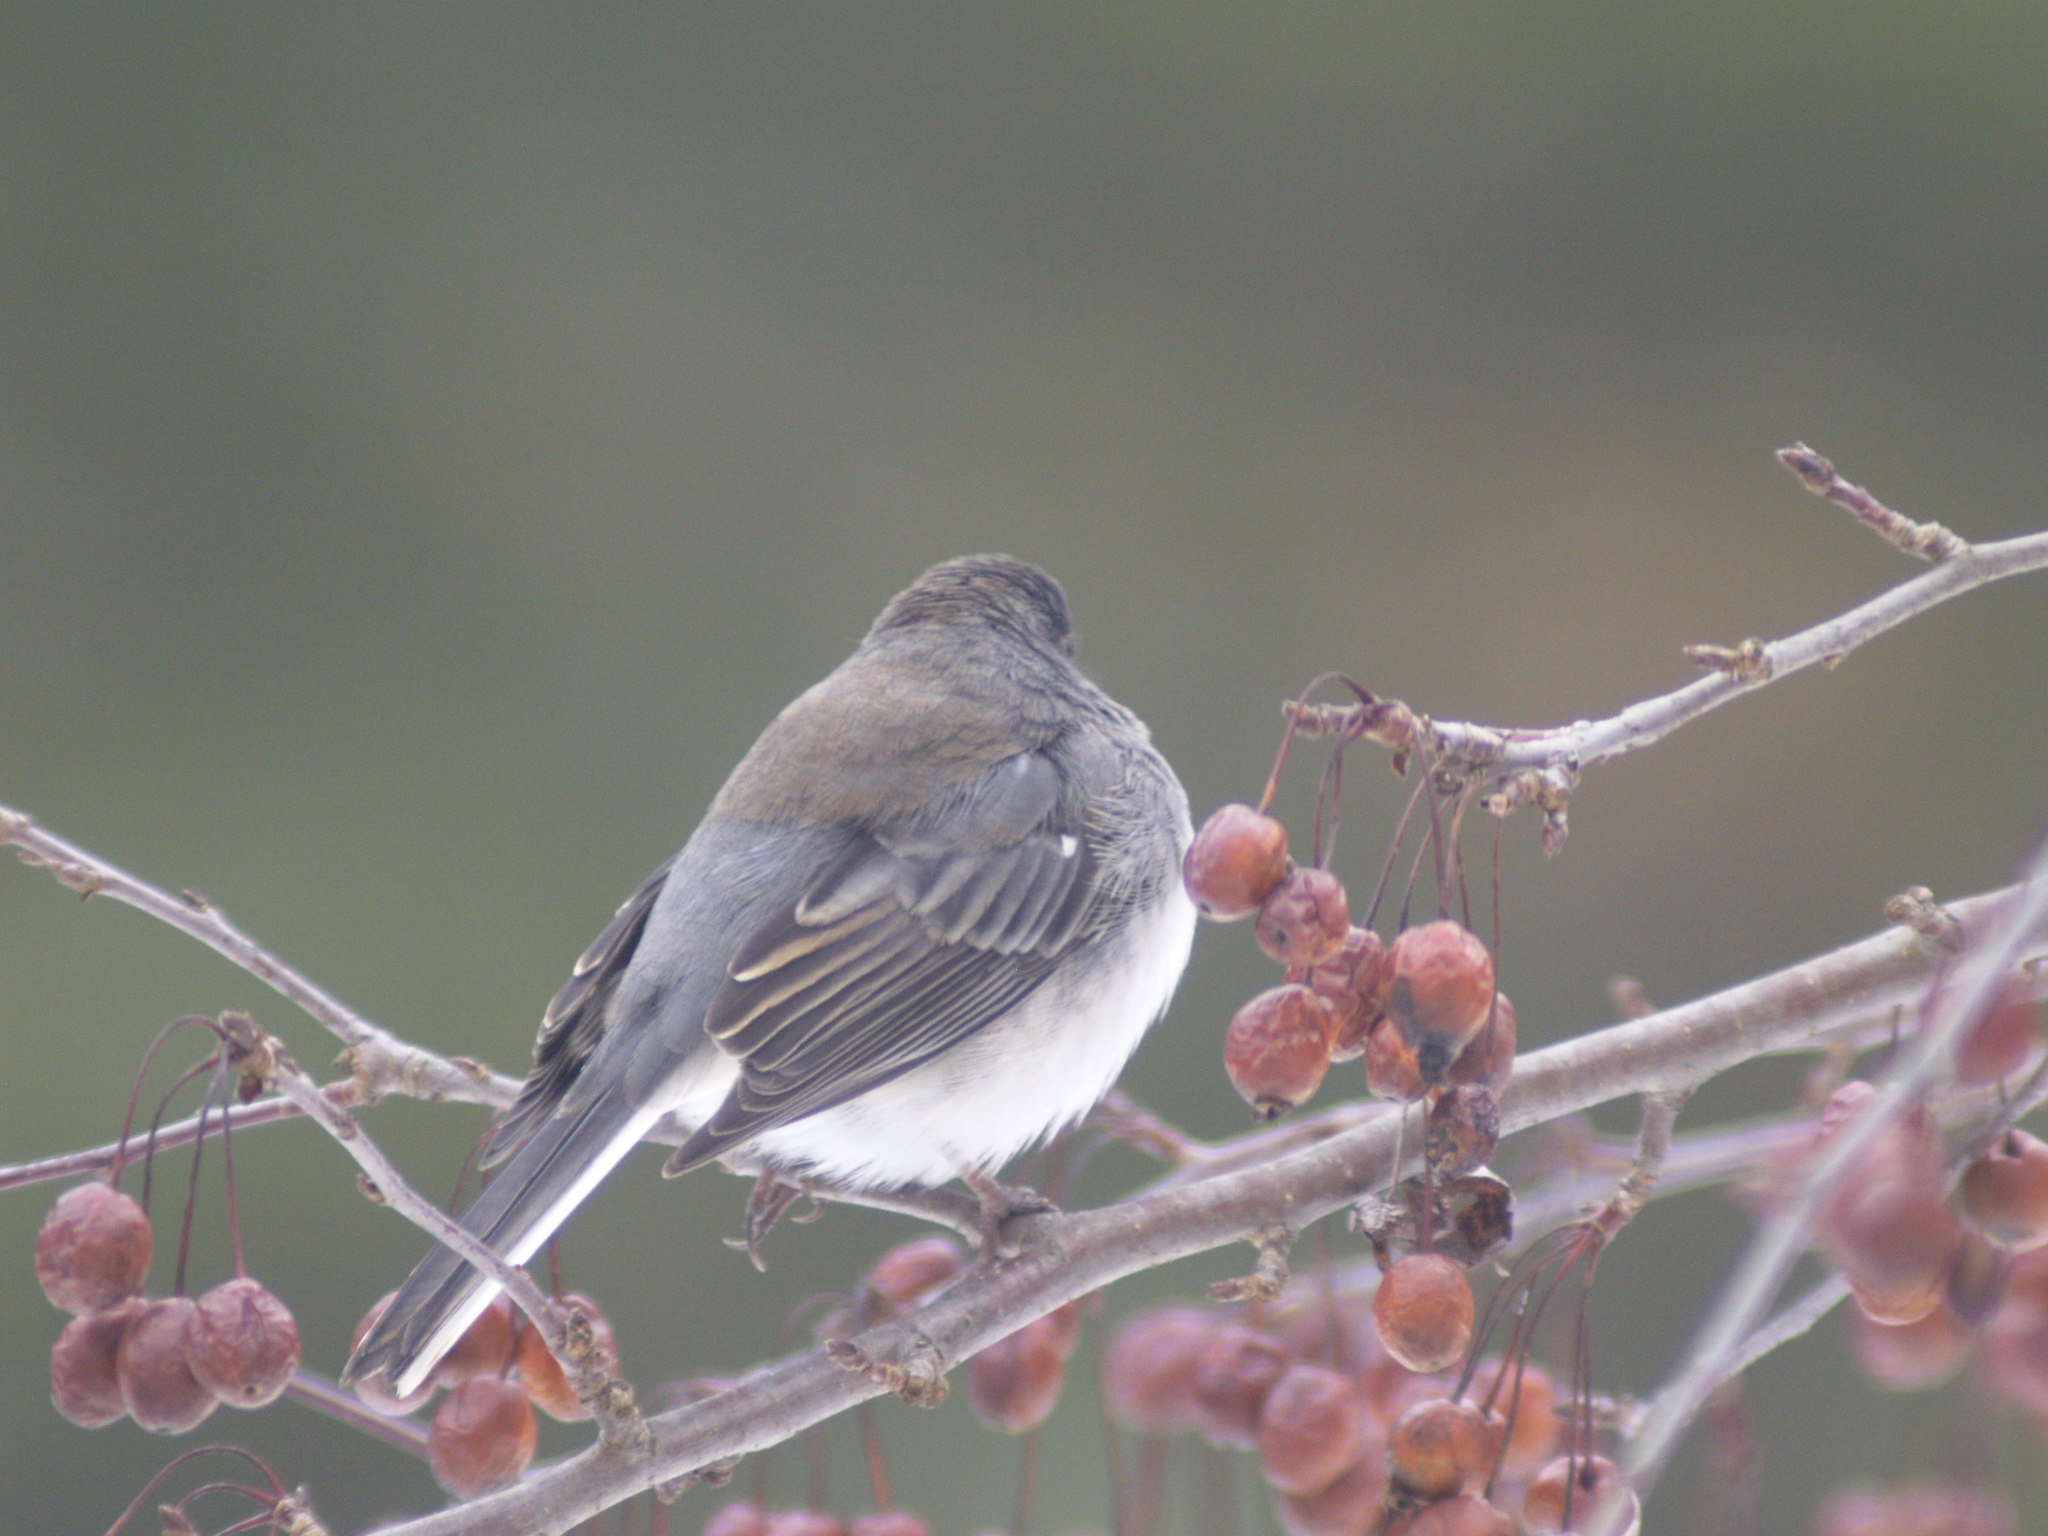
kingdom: Animalia
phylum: Chordata
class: Aves
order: Passeriformes
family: Passerellidae
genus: Junco
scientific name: Junco hyemalis
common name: Dark-eyed junco
